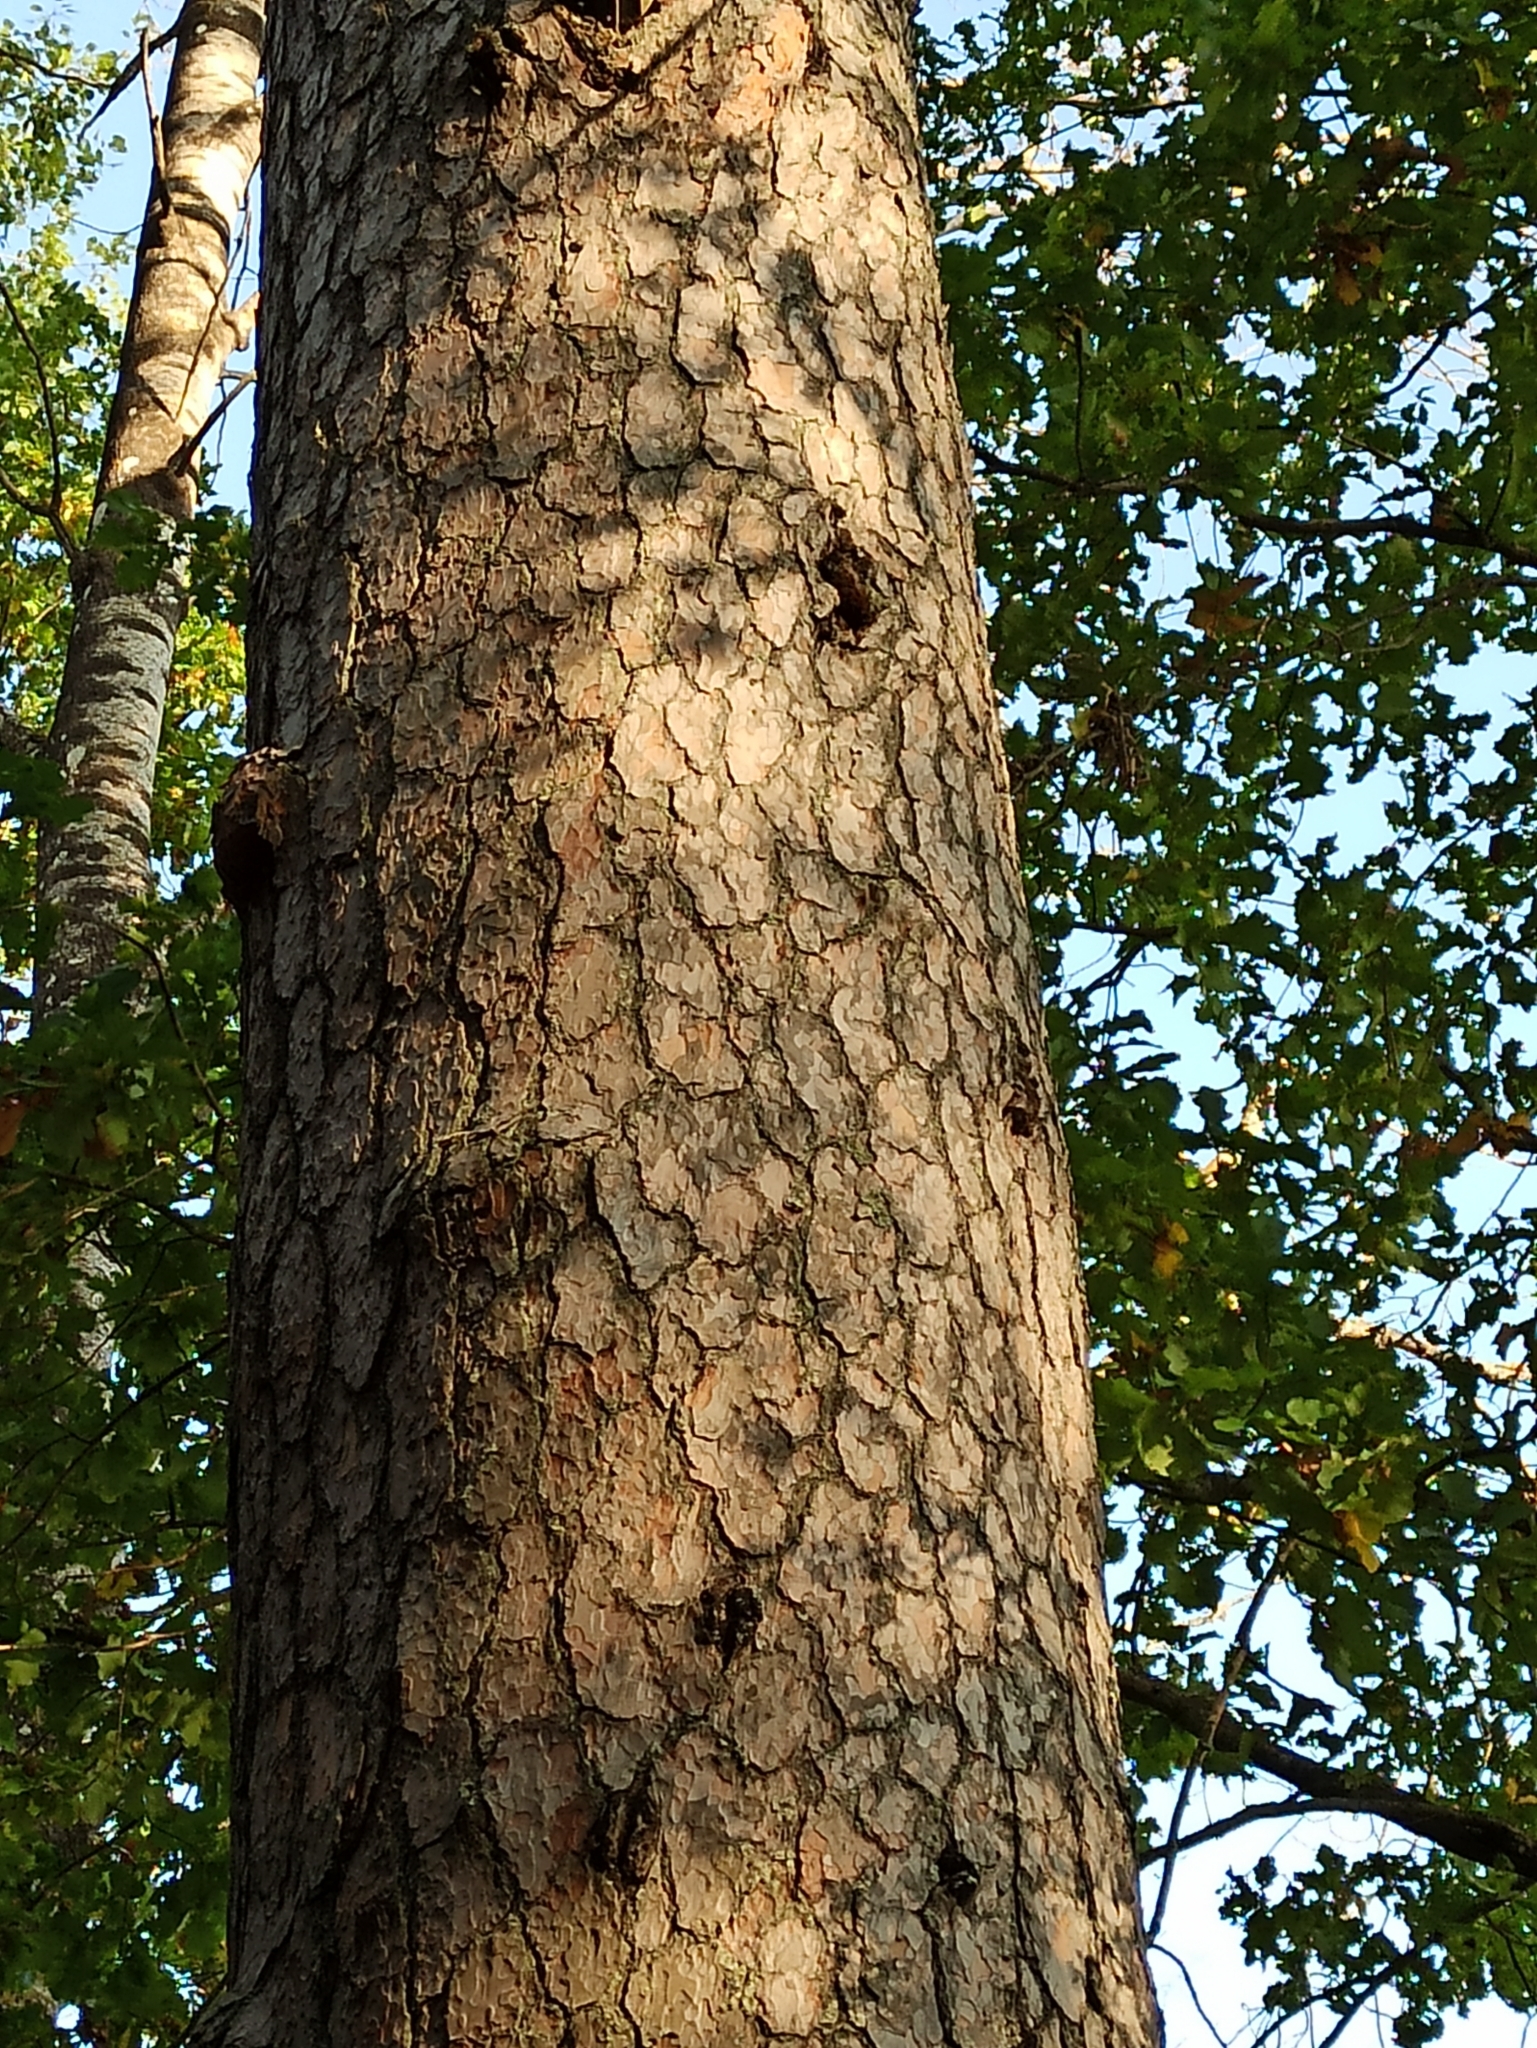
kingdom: Plantae
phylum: Tracheophyta
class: Pinopsida
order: Pinales
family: Pinaceae
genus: Pinus
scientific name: Pinus sylvestris
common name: Scots pine
